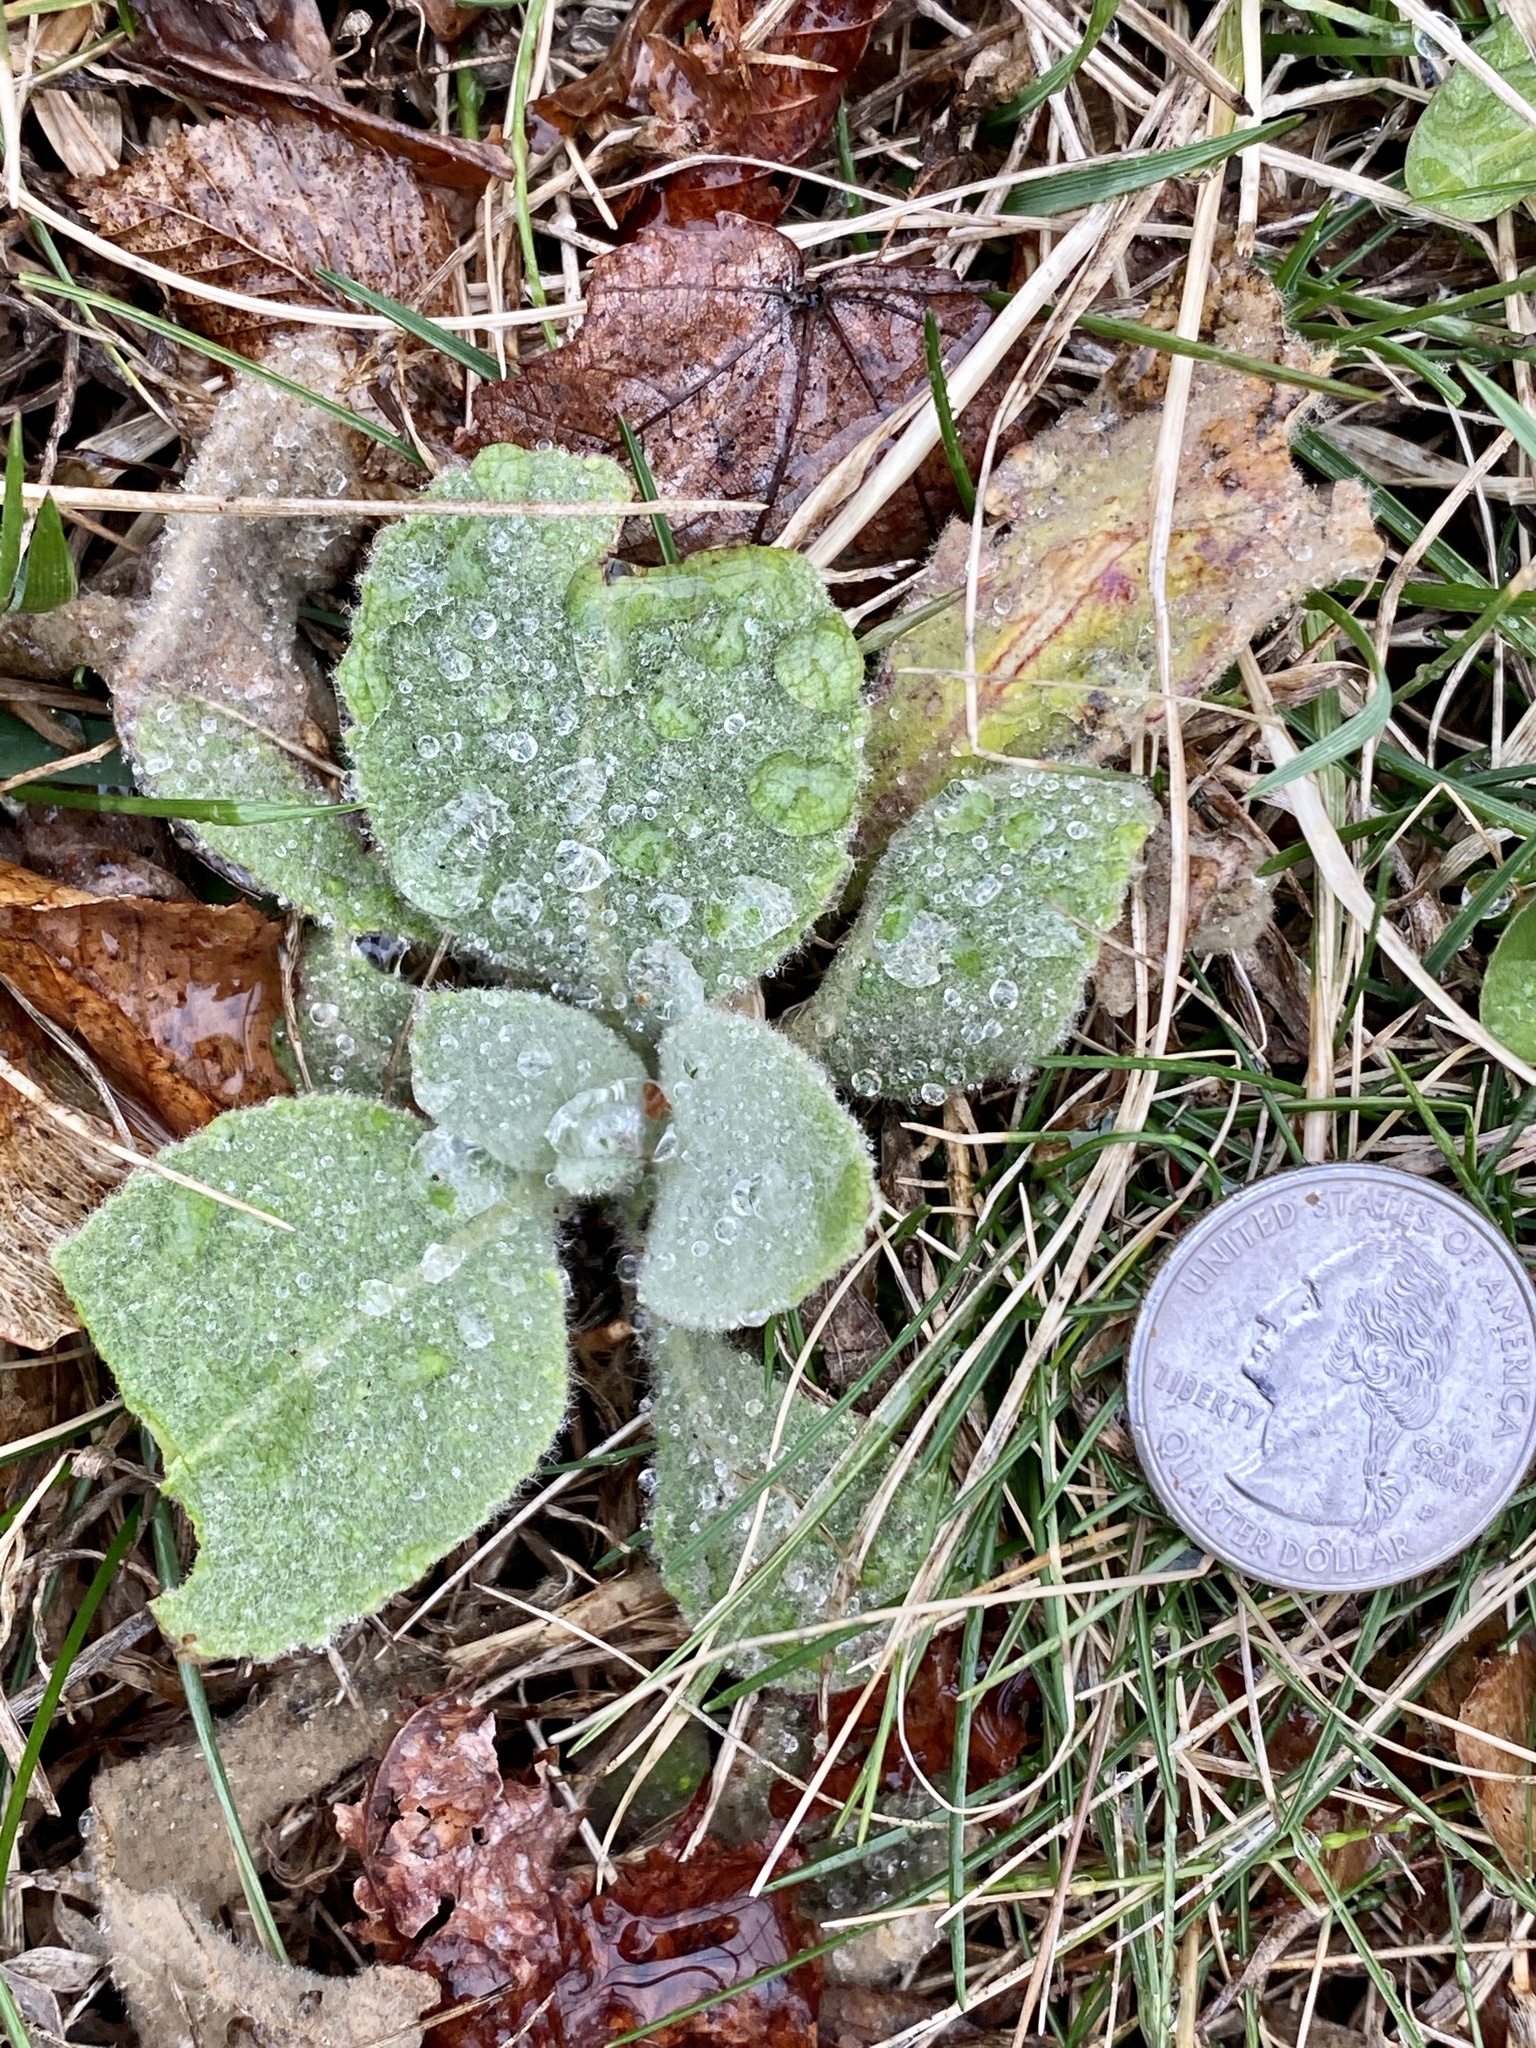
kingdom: Plantae
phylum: Tracheophyta
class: Magnoliopsida
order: Lamiales
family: Scrophulariaceae
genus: Verbascum
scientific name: Verbascum thapsus
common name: Common mullein
